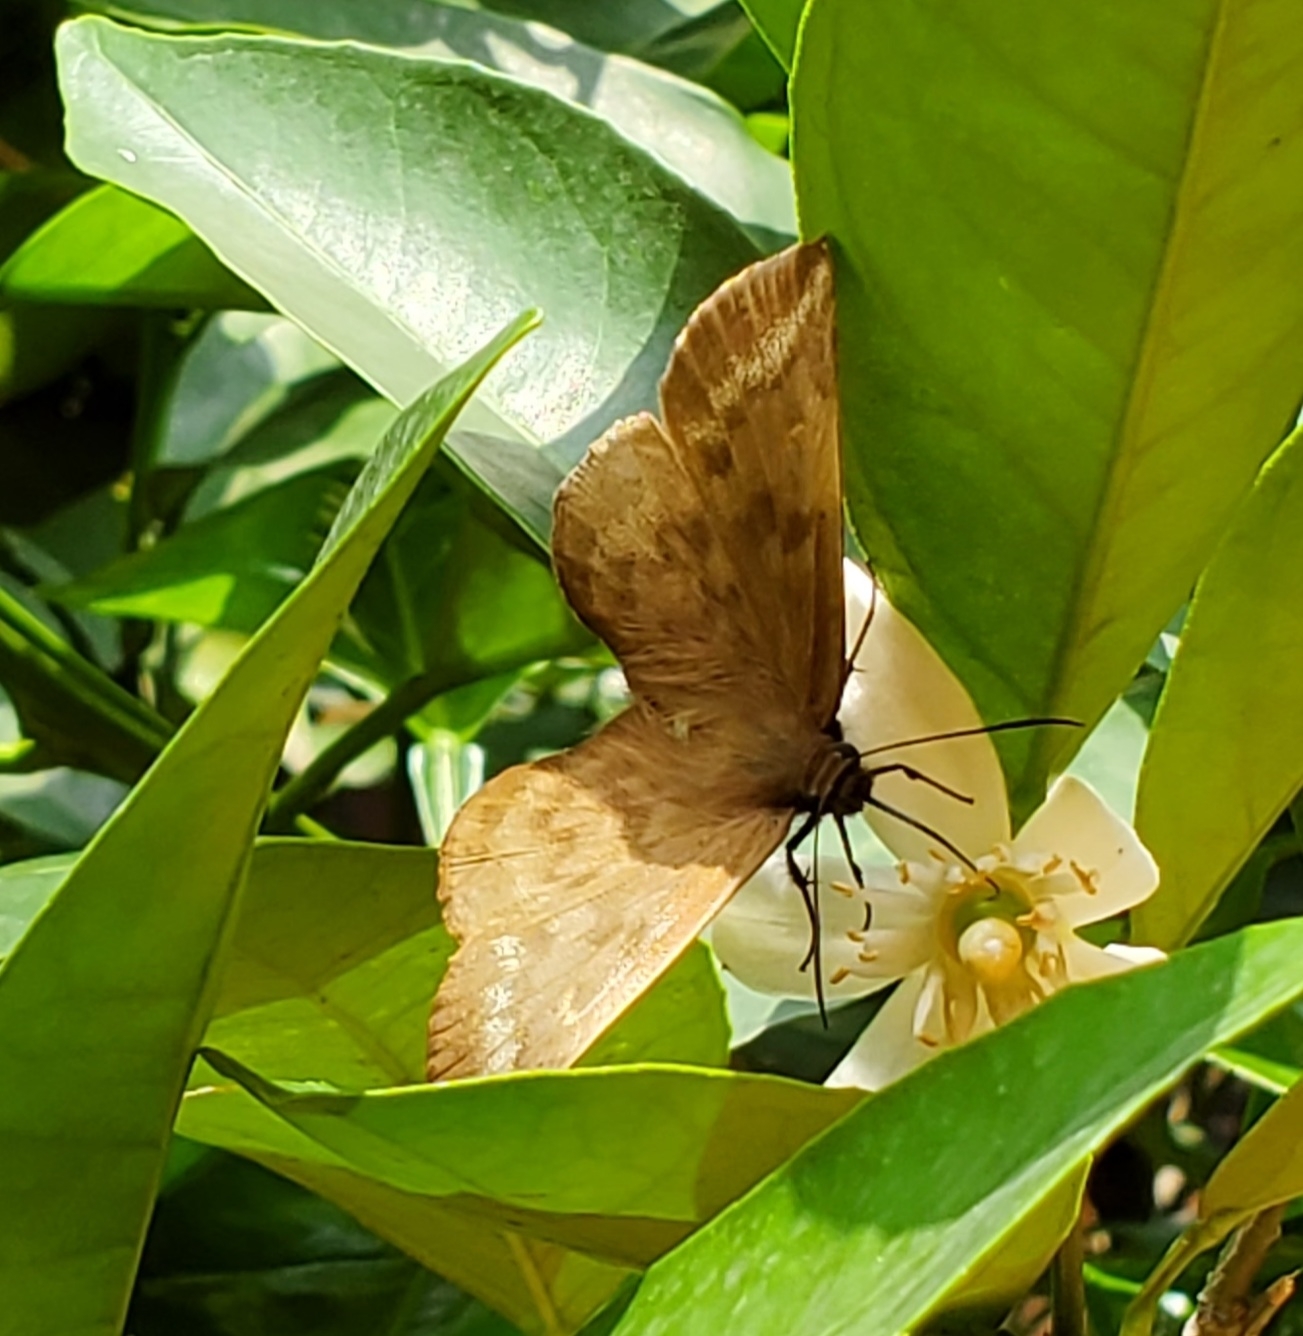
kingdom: Animalia
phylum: Arthropoda
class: Insecta
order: Lepidoptera
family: Hesperiidae
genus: Achlyodes
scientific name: Achlyodes pallida
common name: Pale sicklewing
